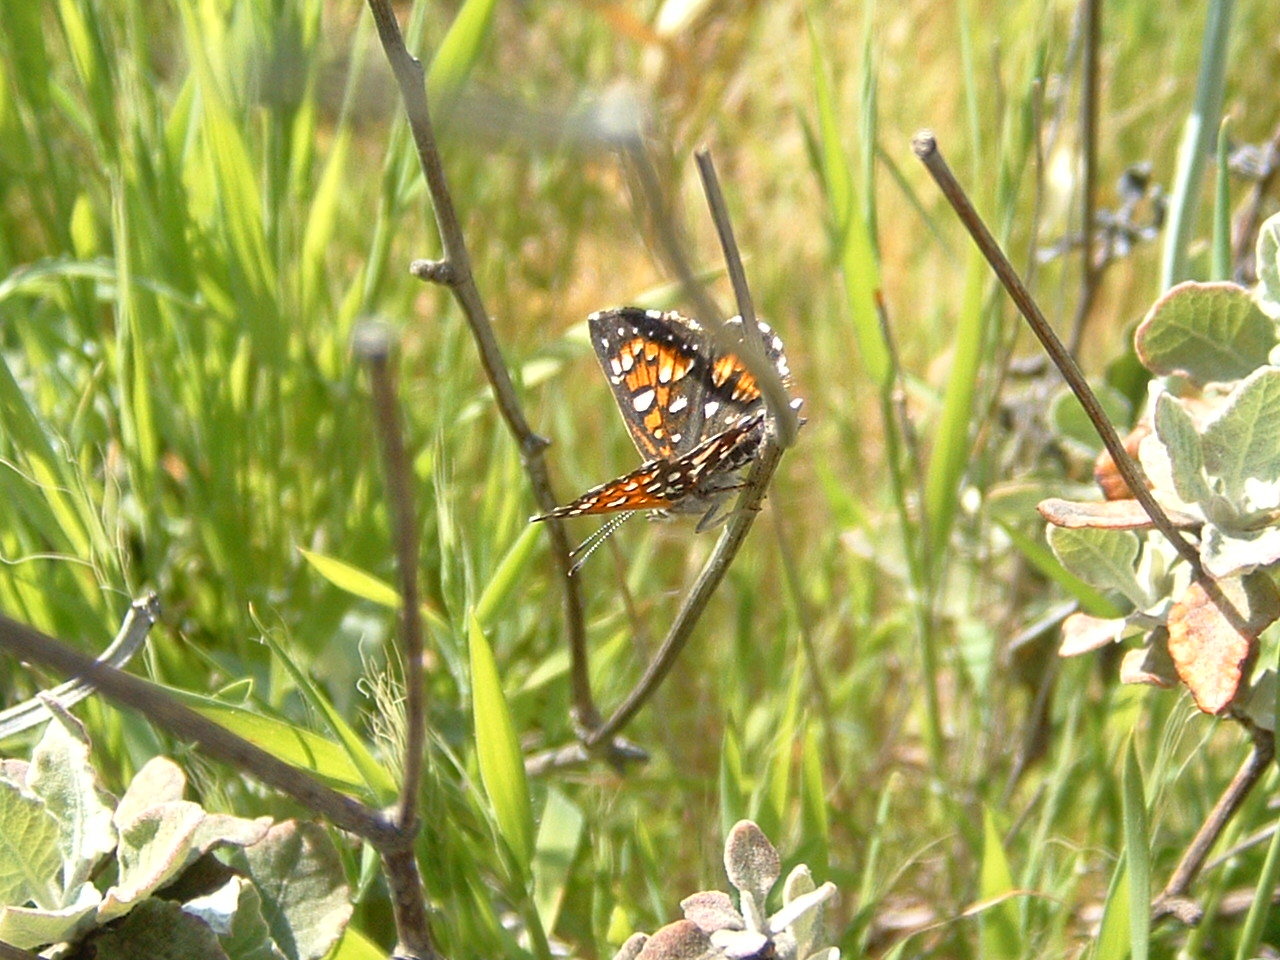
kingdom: Animalia
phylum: Arthropoda
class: Insecta
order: Lepidoptera
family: Riodinidae
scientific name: Riodinidae
